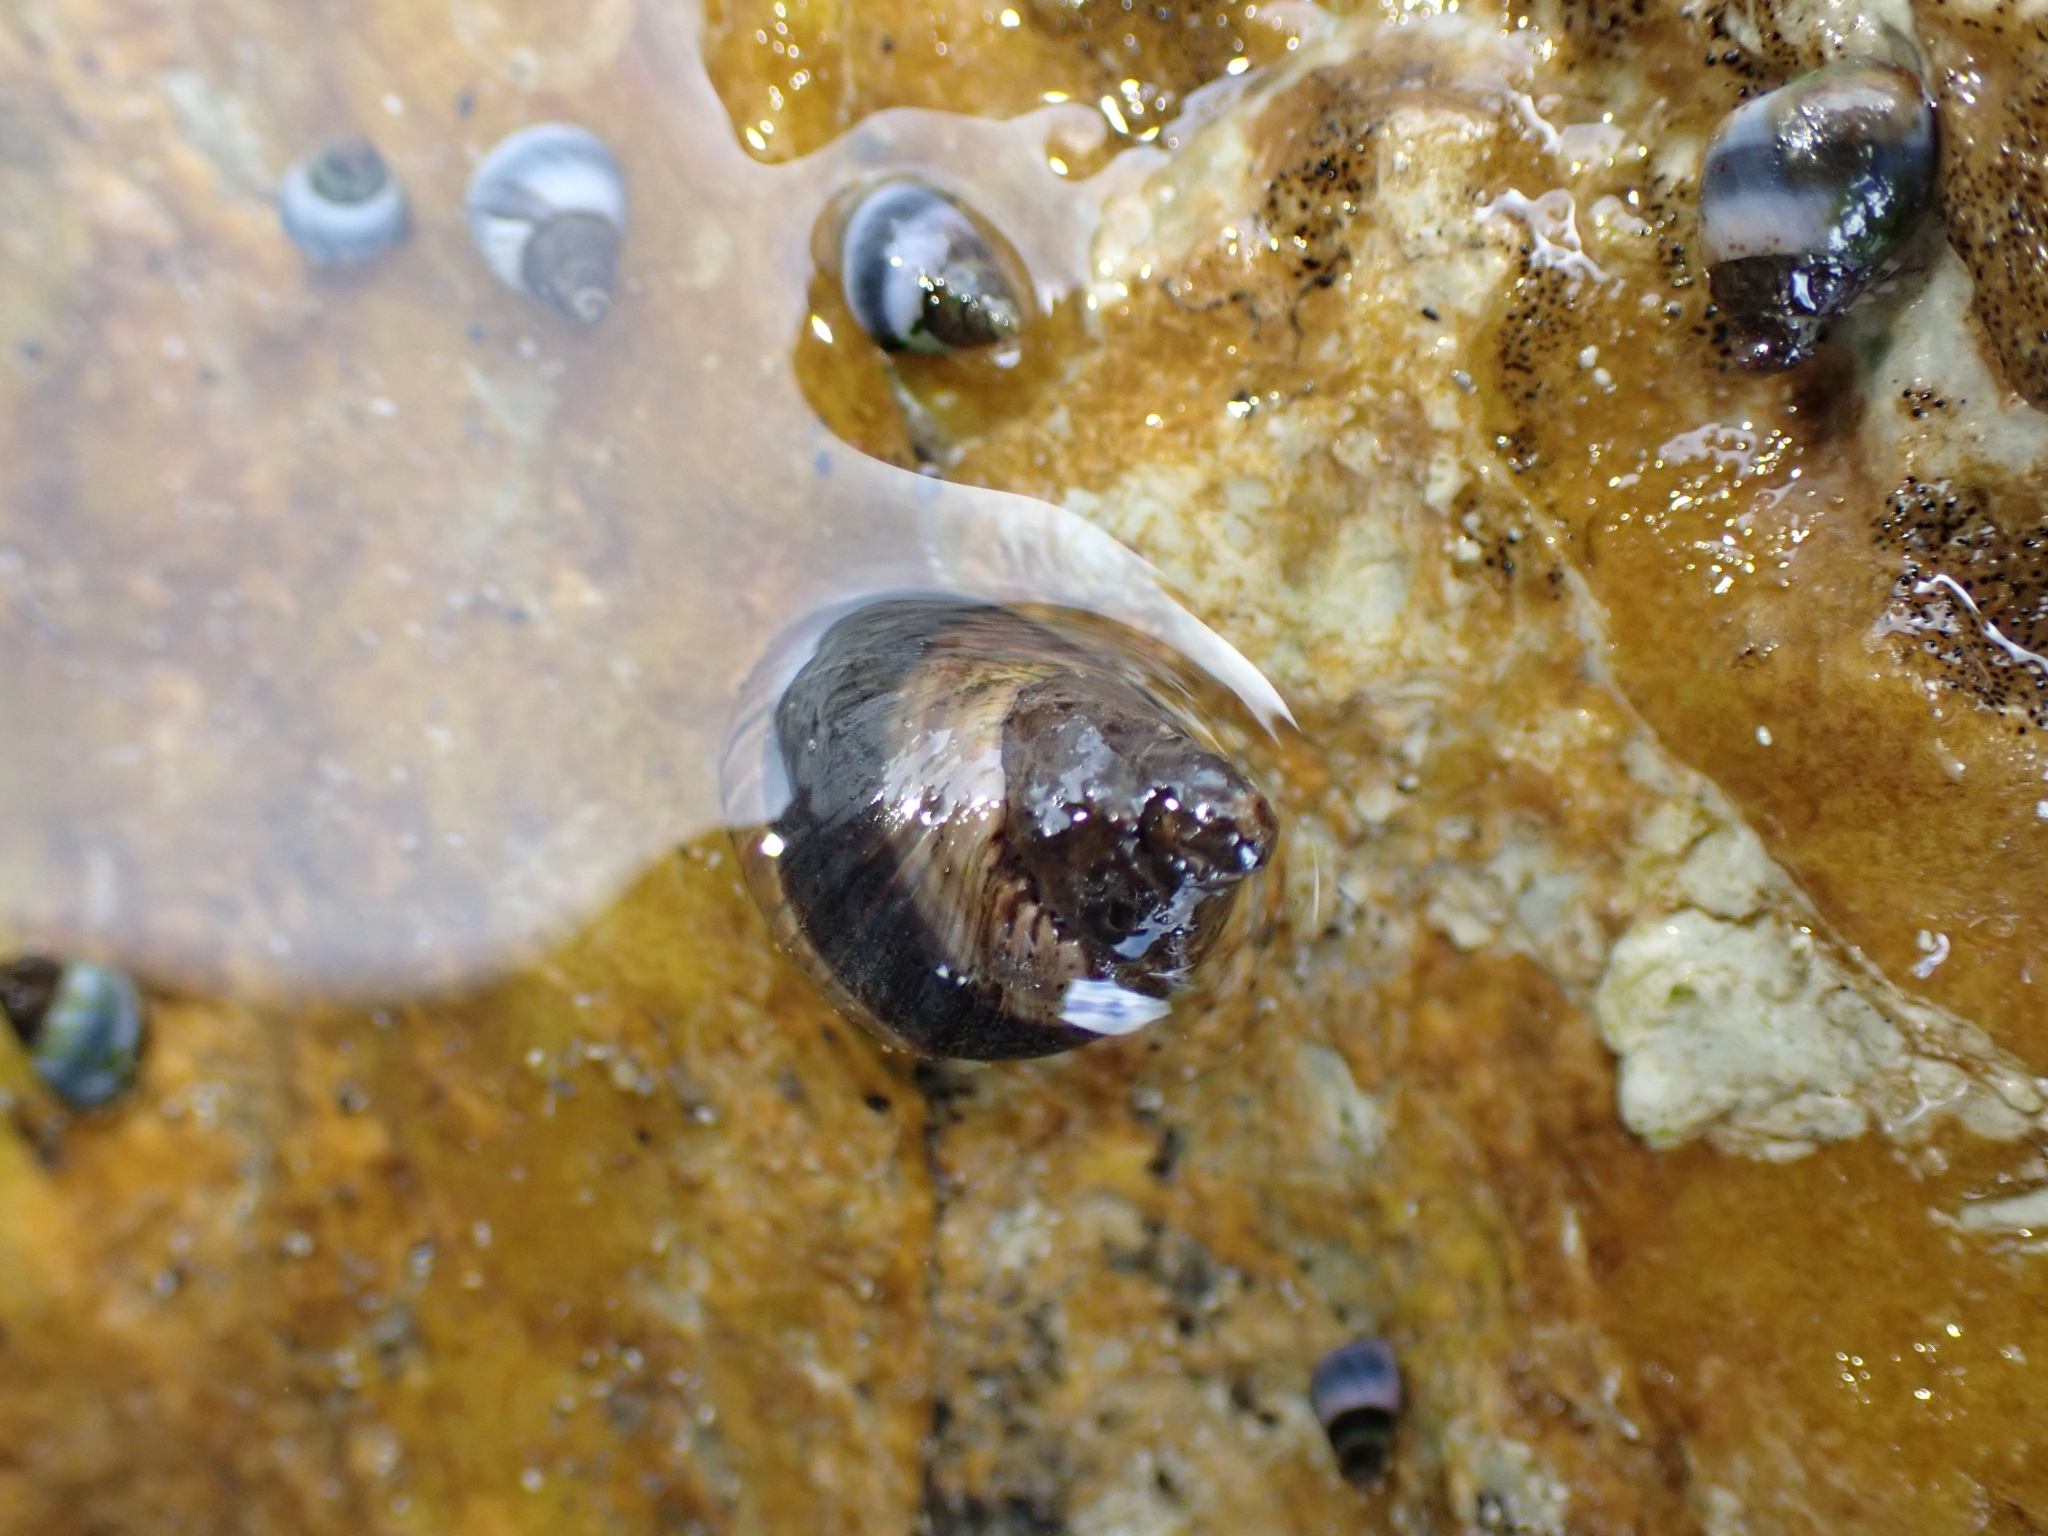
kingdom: Animalia
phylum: Mollusca
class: Gastropoda
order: Littorinimorpha
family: Littorinidae
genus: Austrolittorina
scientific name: Austrolittorina cincta
